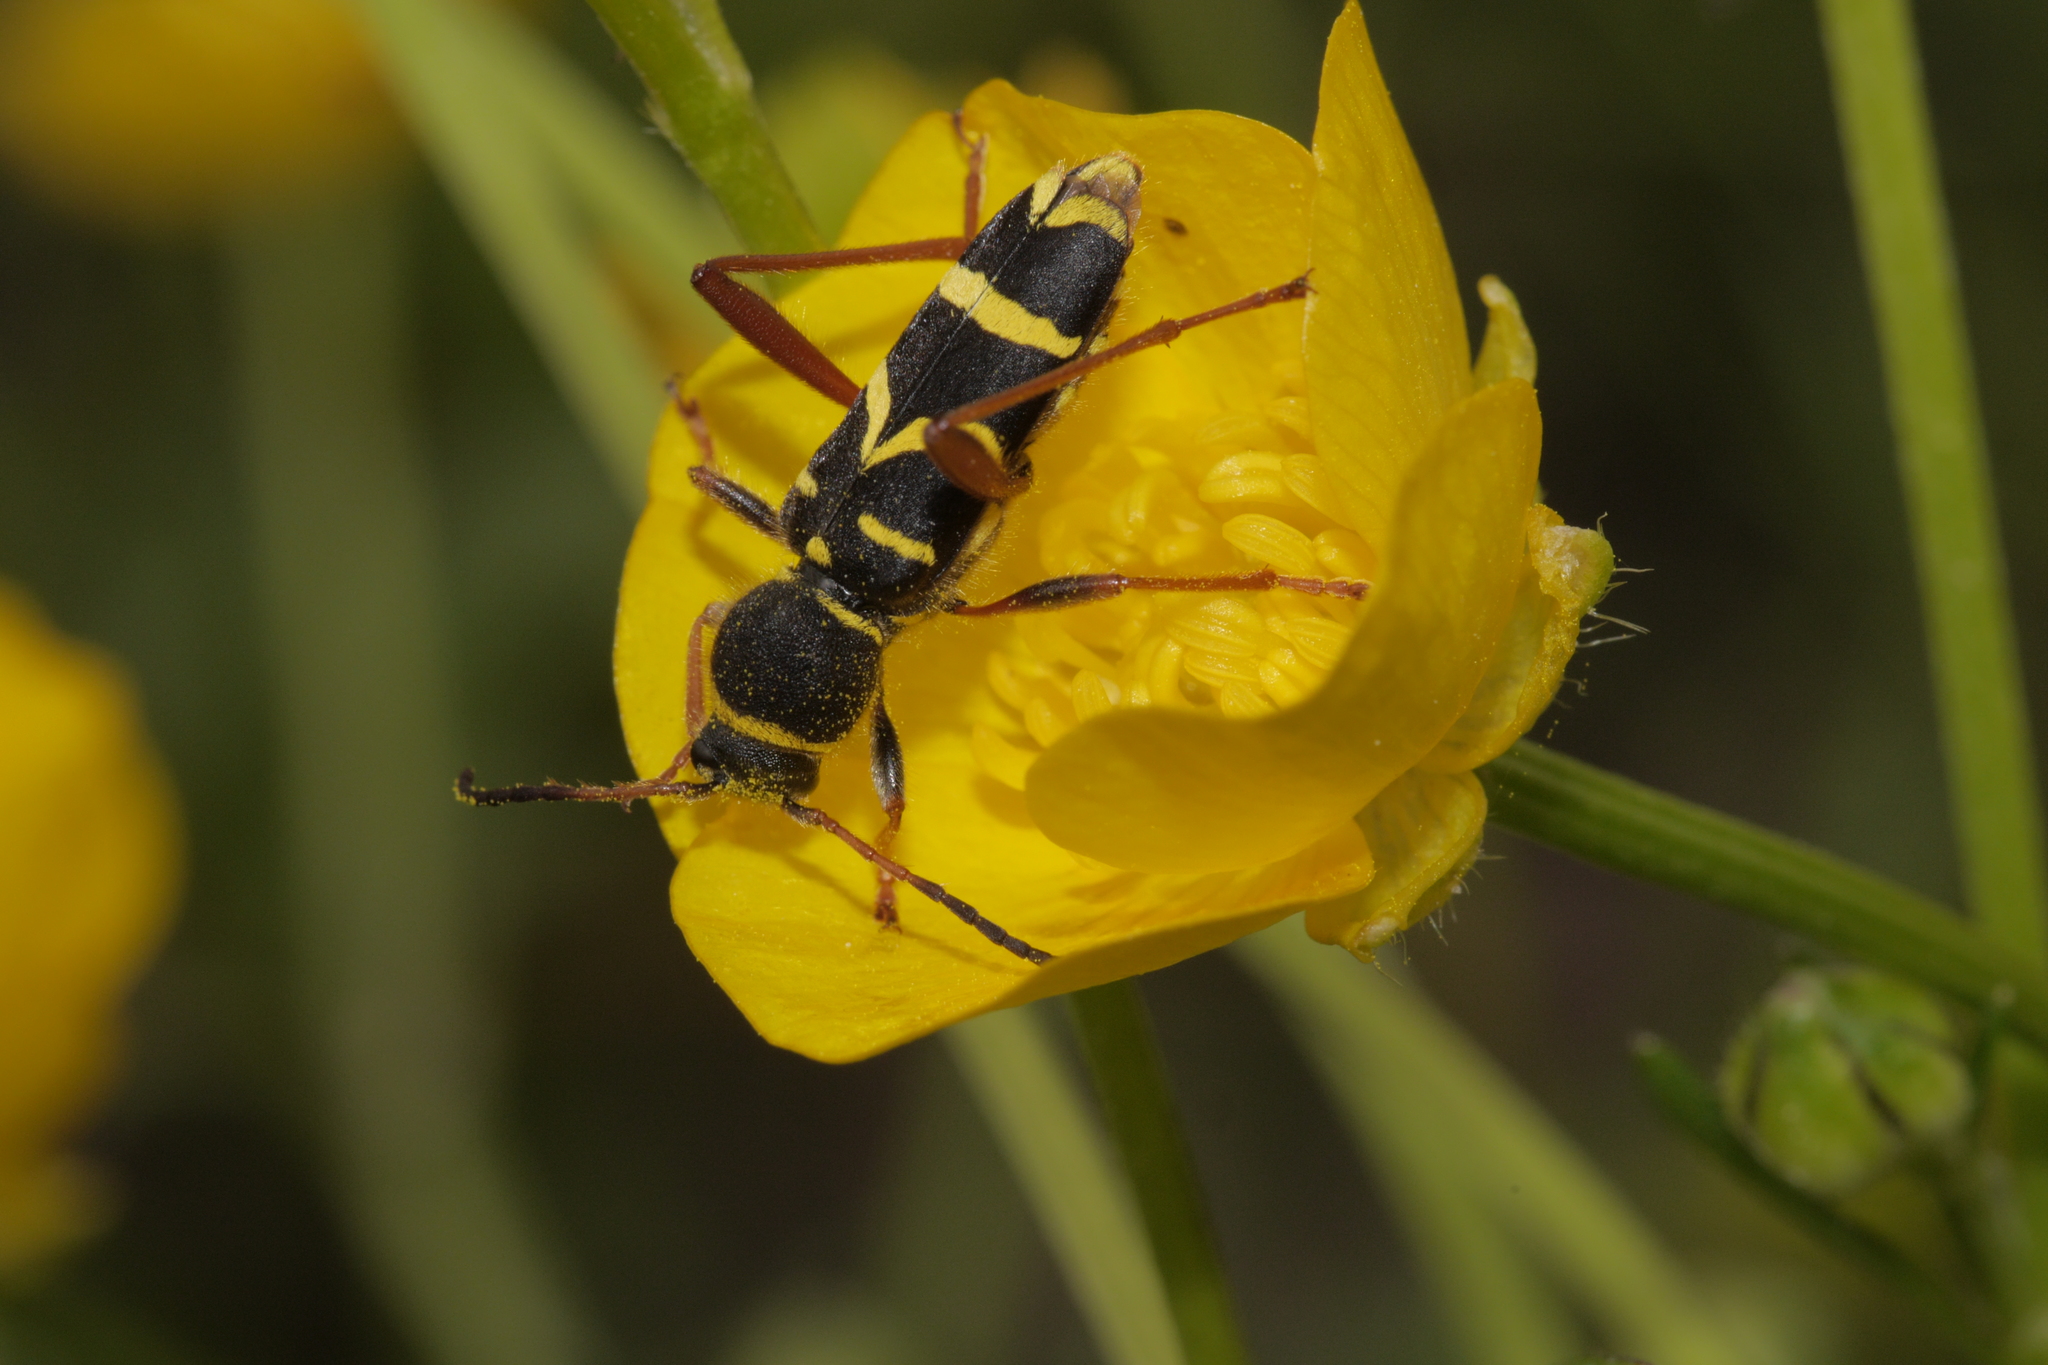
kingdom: Animalia
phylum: Arthropoda
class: Insecta
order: Coleoptera
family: Cerambycidae
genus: Clytus
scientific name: Clytus arietis
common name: Wasp beetle
